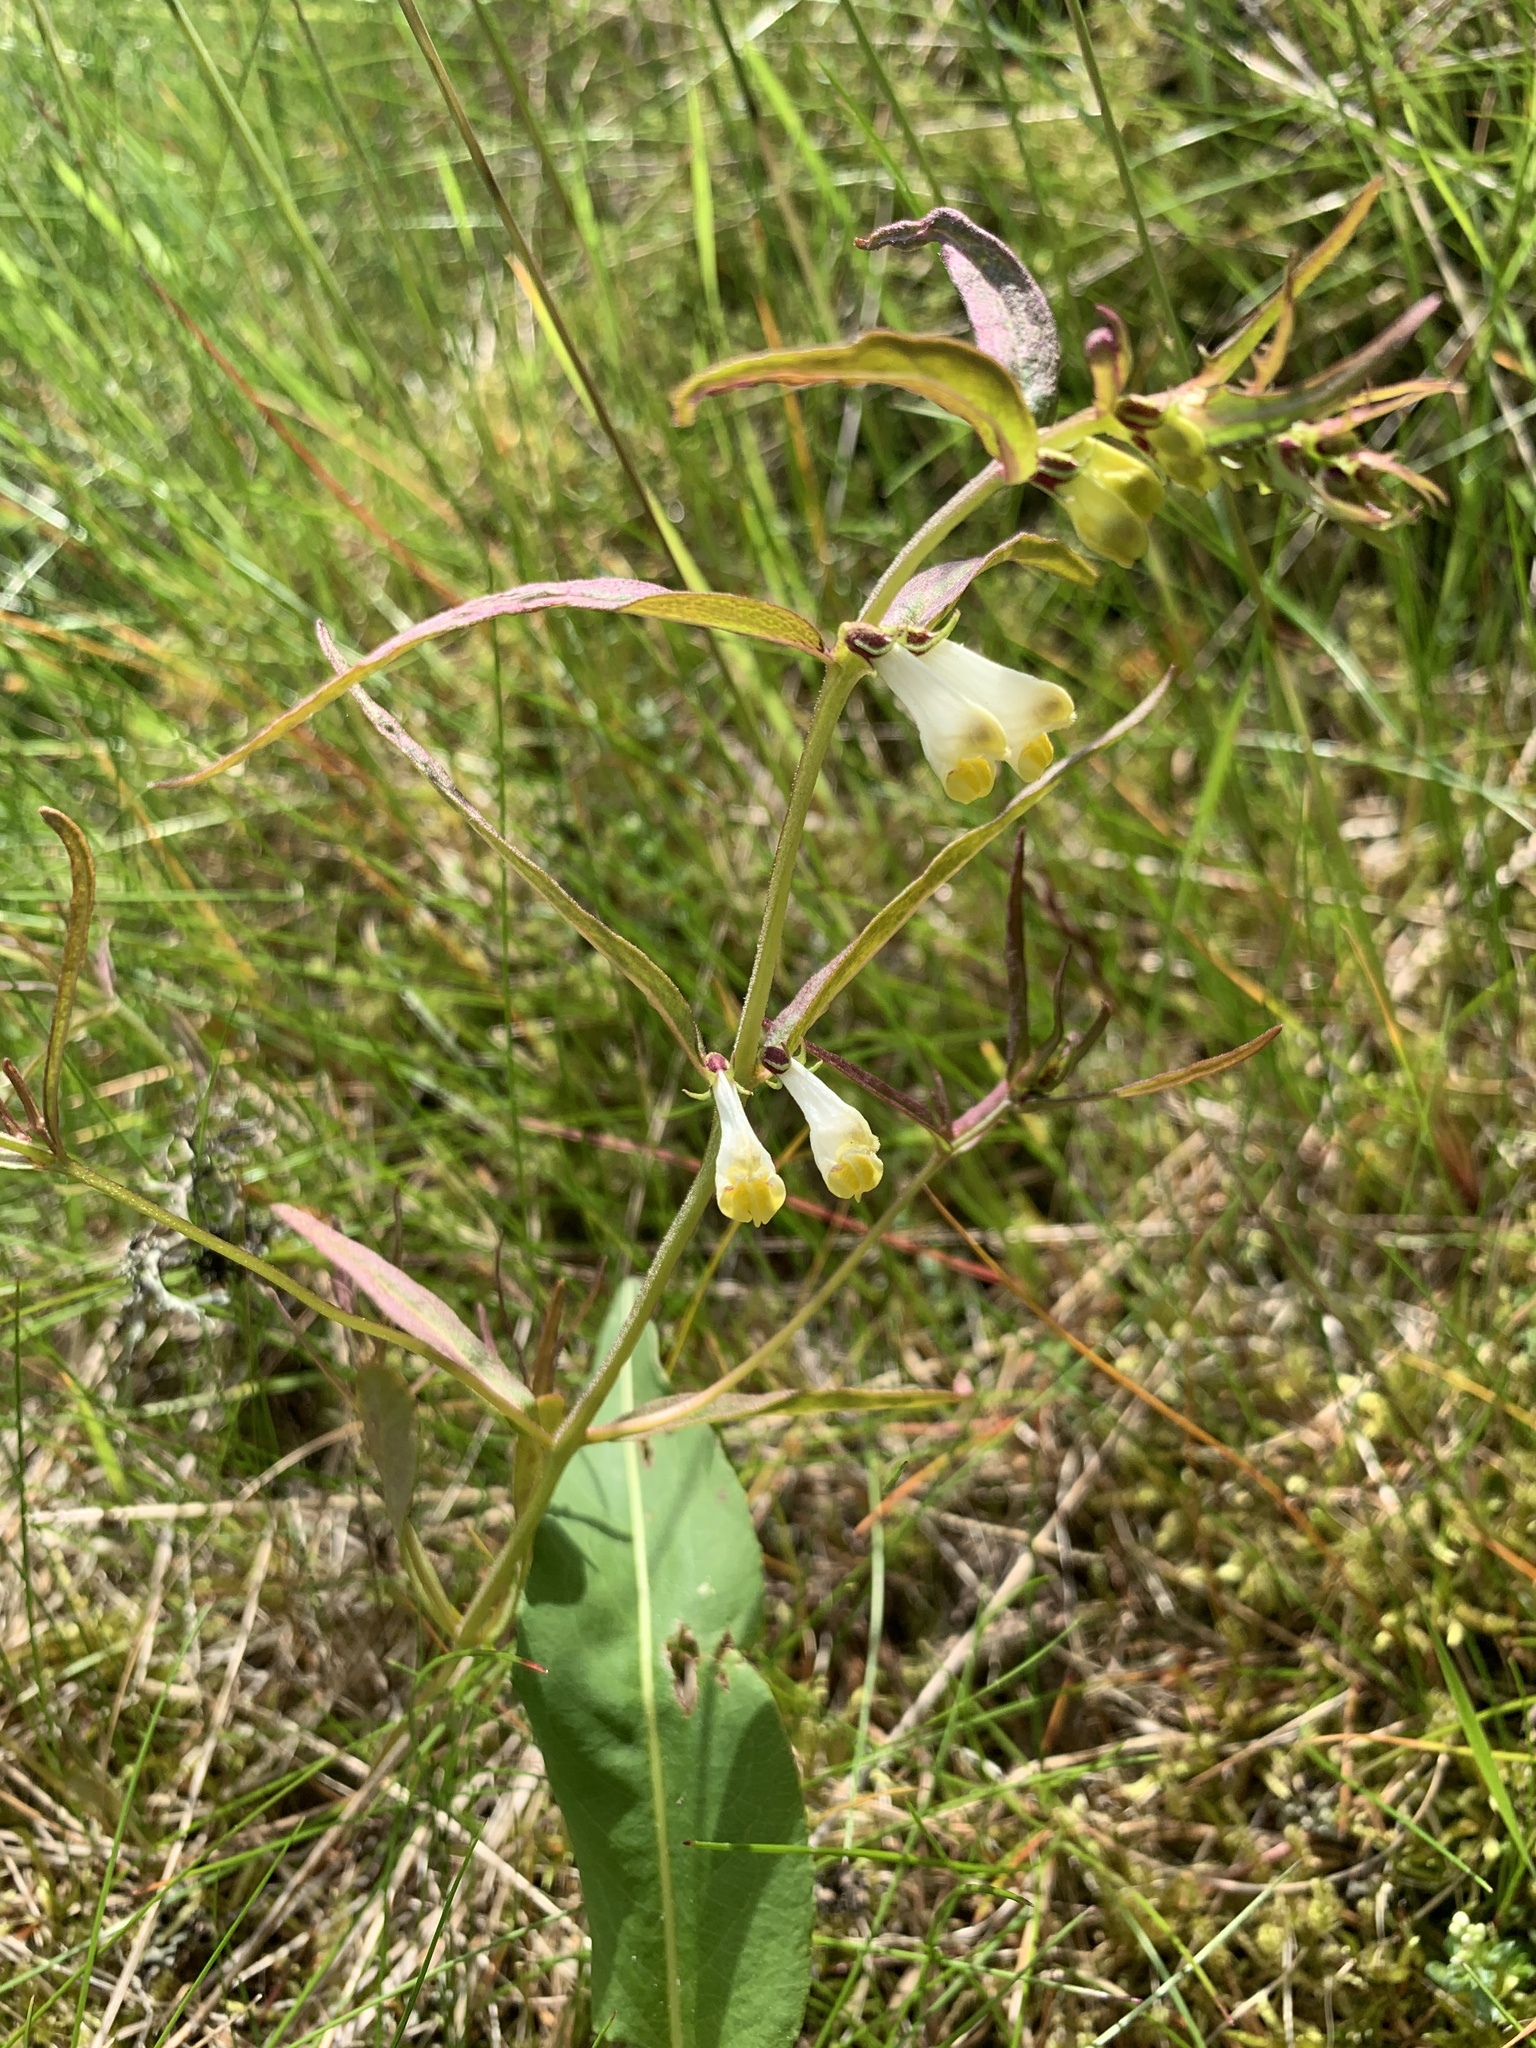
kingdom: Plantae
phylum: Tracheophyta
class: Magnoliopsida
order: Lamiales
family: Orobanchaceae
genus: Melampyrum
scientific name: Melampyrum pratense
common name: Common cow-wheat
